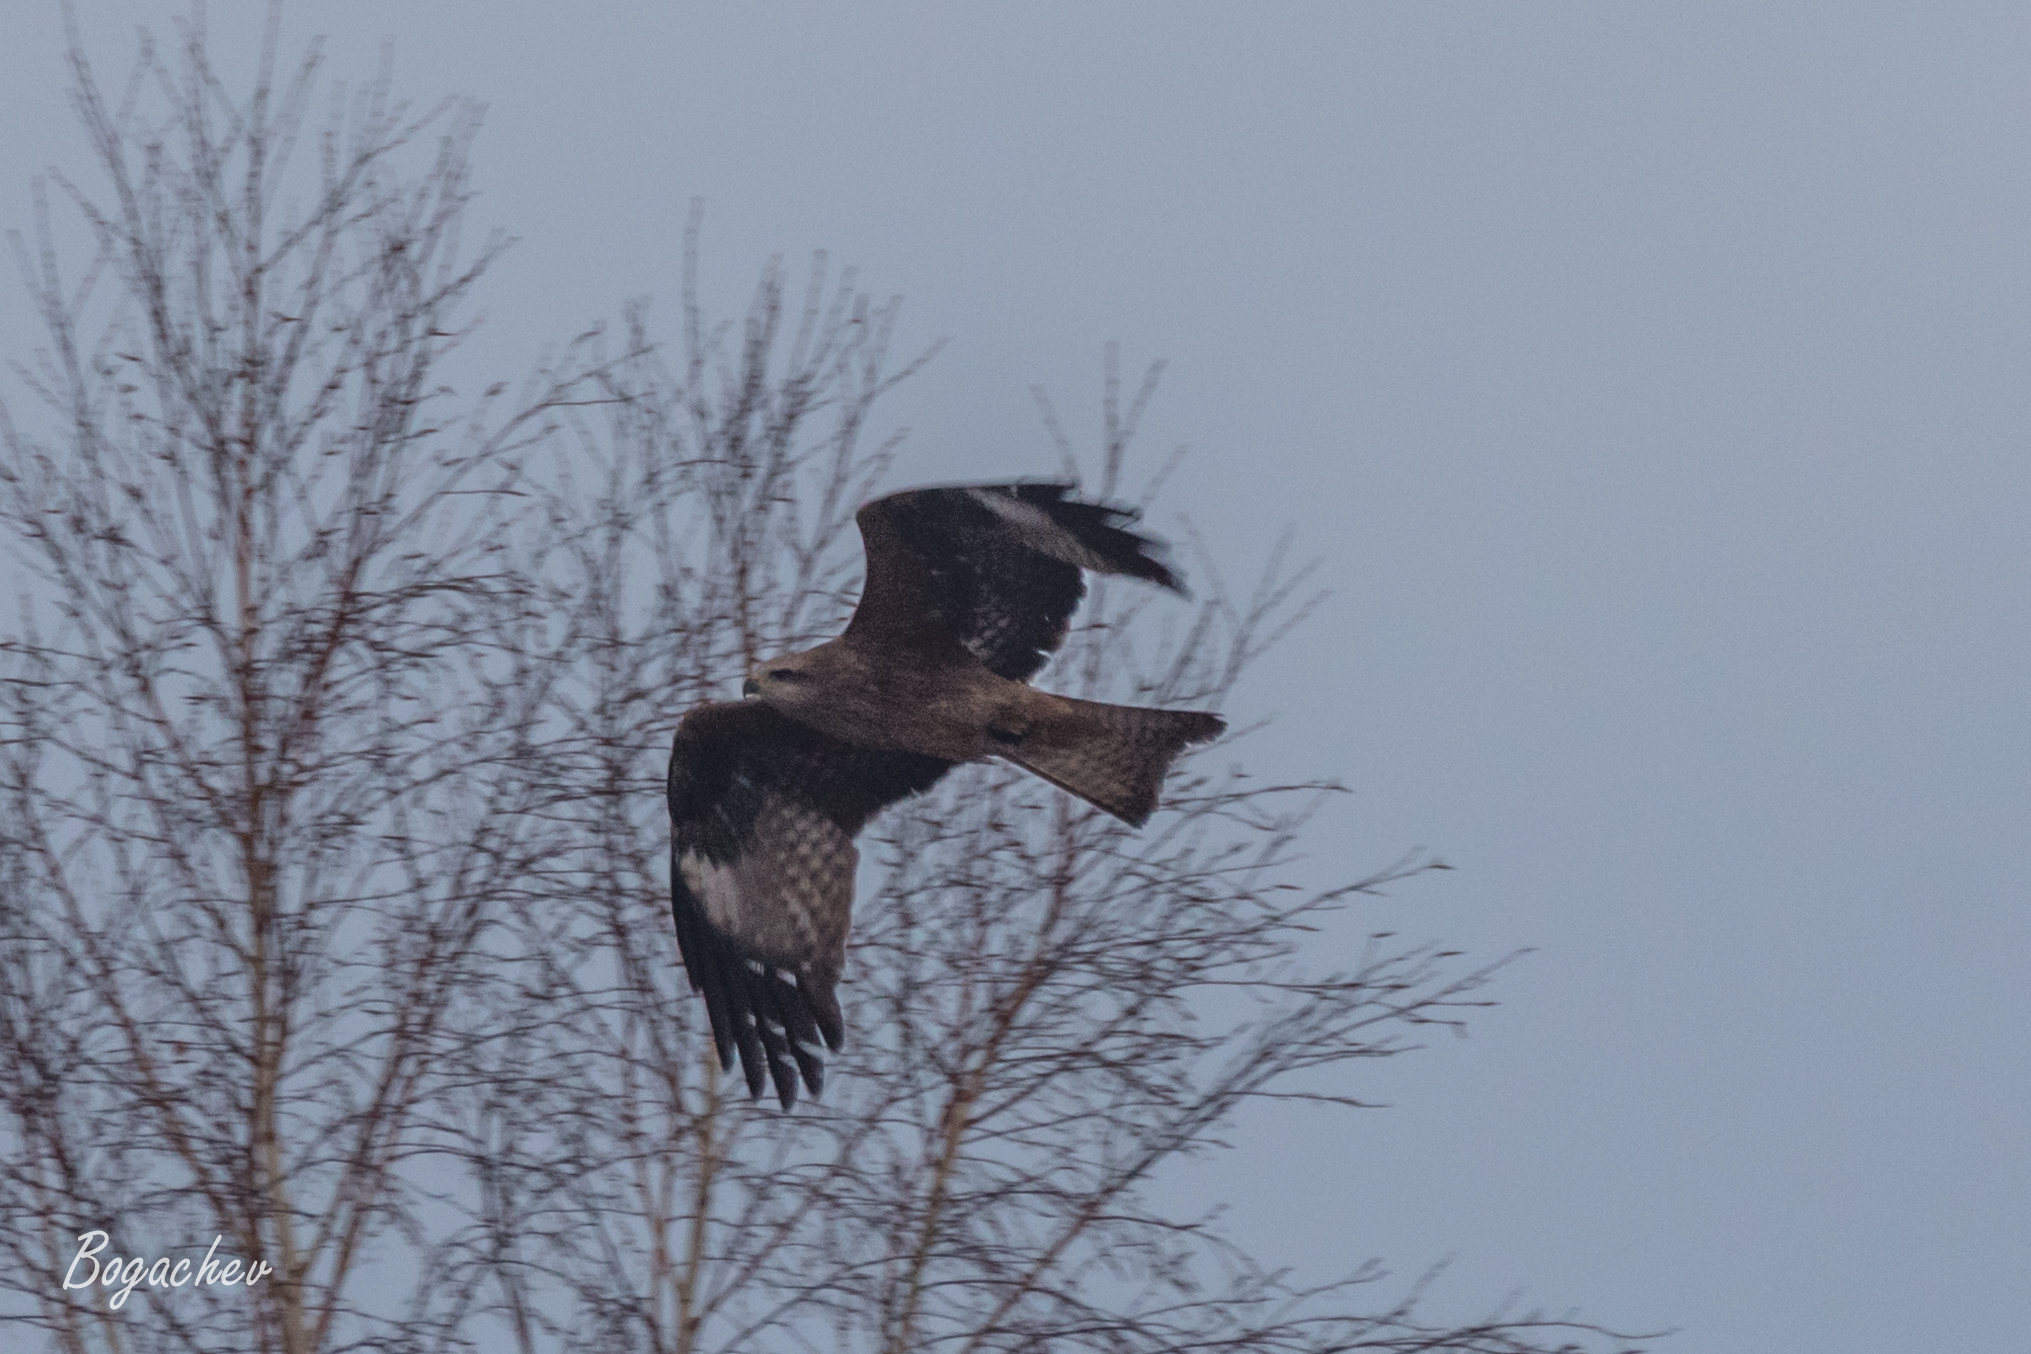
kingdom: Animalia
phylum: Chordata
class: Aves
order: Accipitriformes
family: Accipitridae
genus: Milvus
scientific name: Milvus migrans
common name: Black kite
